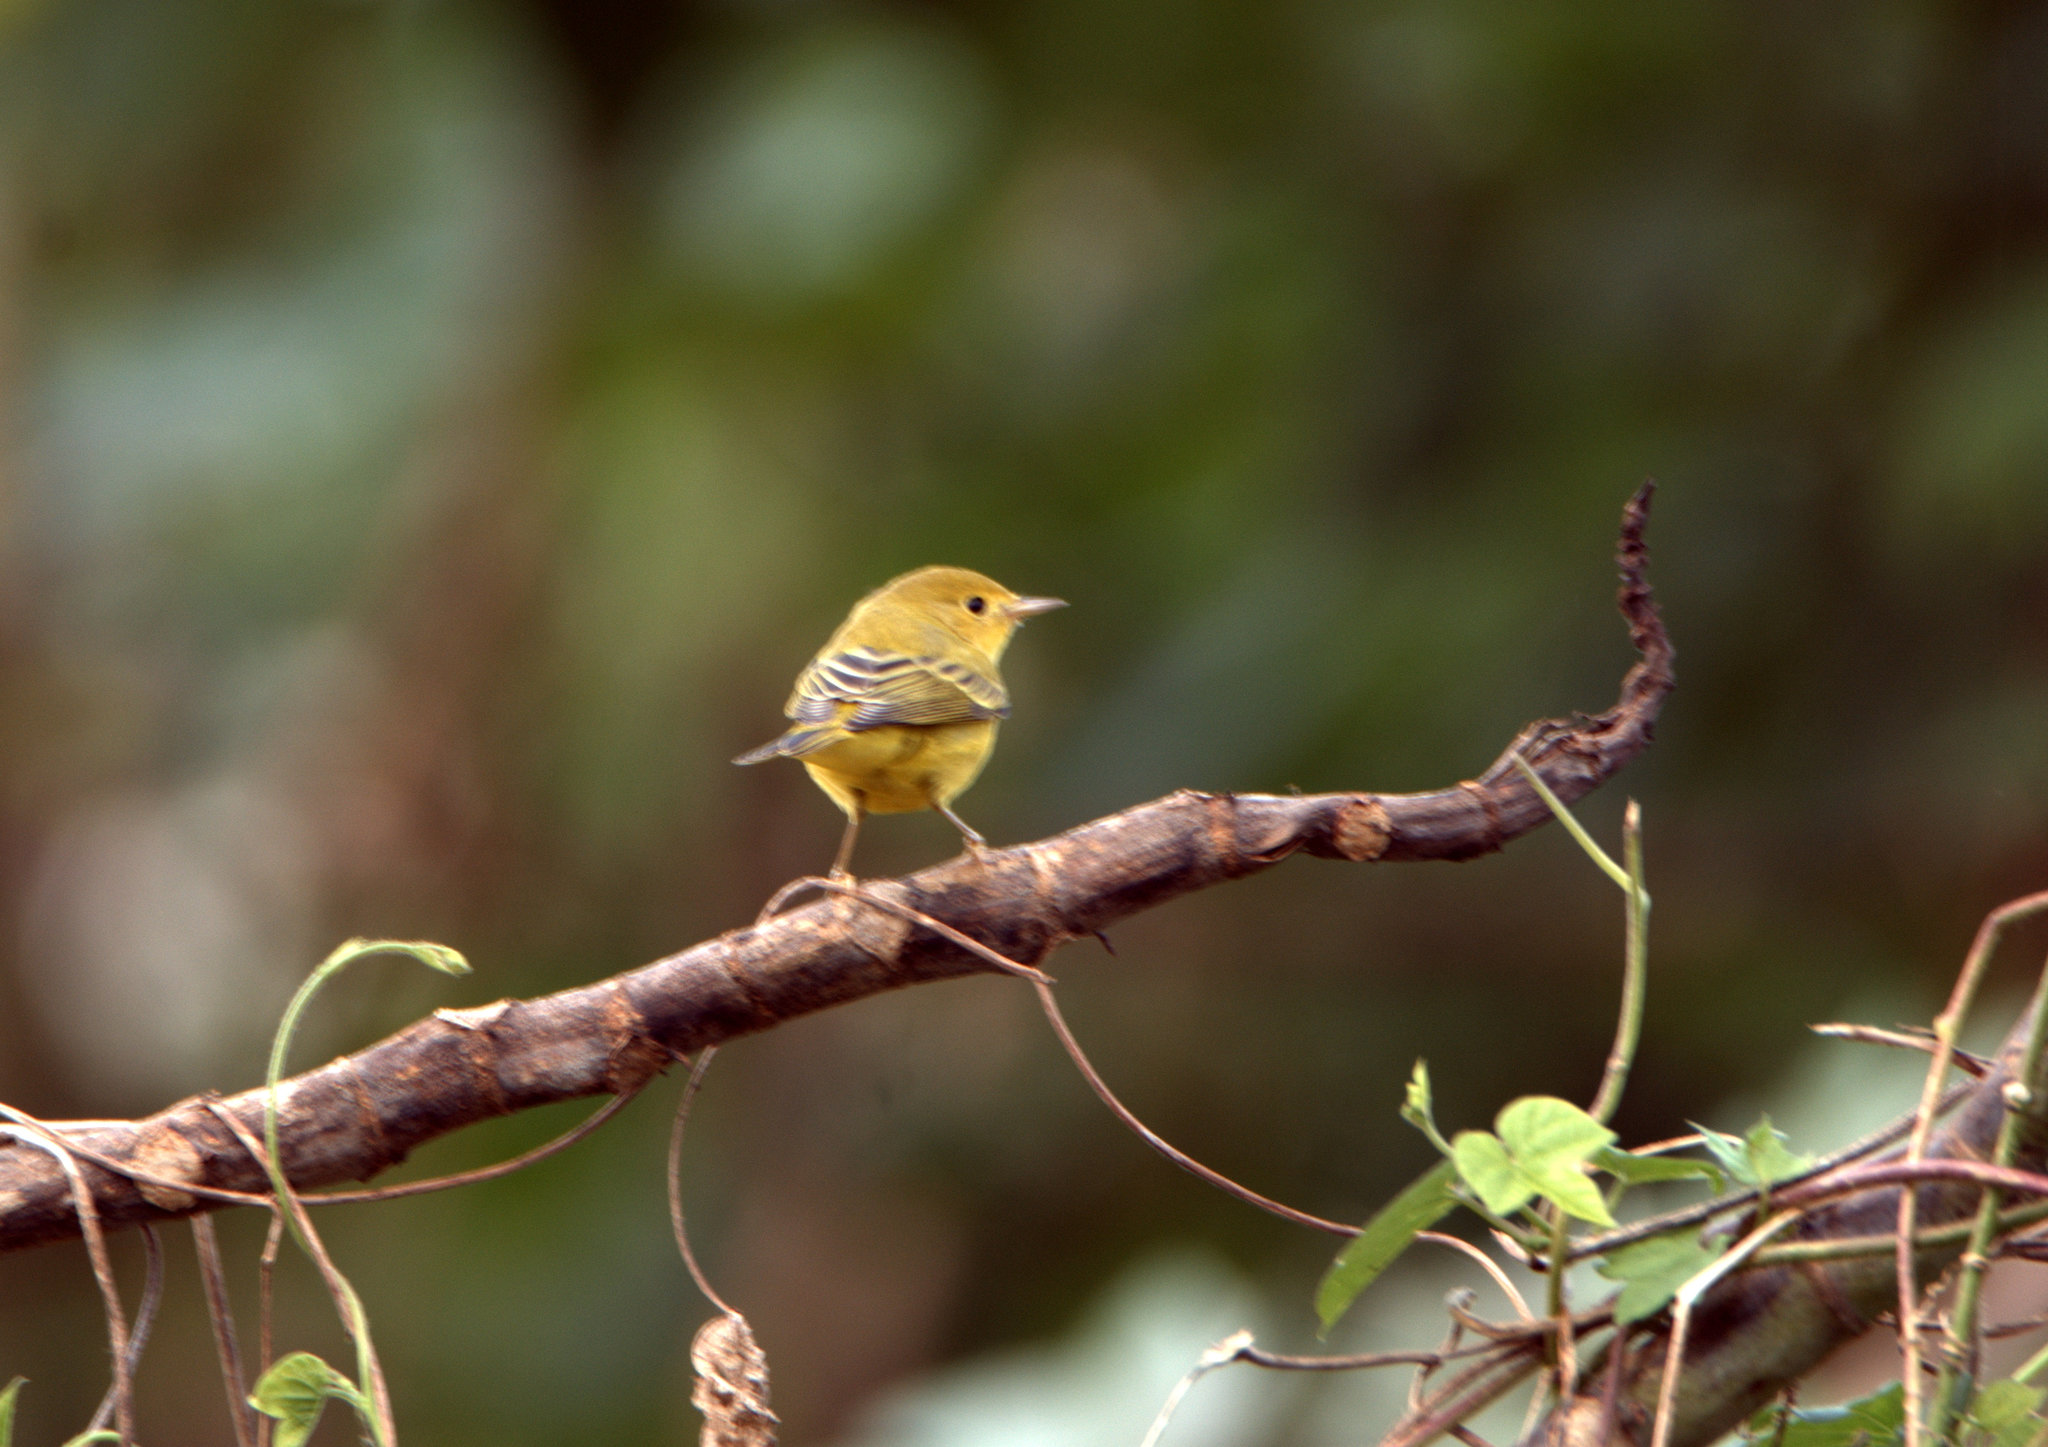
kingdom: Animalia
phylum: Chordata
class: Aves
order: Passeriformes
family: Parulidae
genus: Setophaga
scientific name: Setophaga petechia
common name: Yellow warbler
